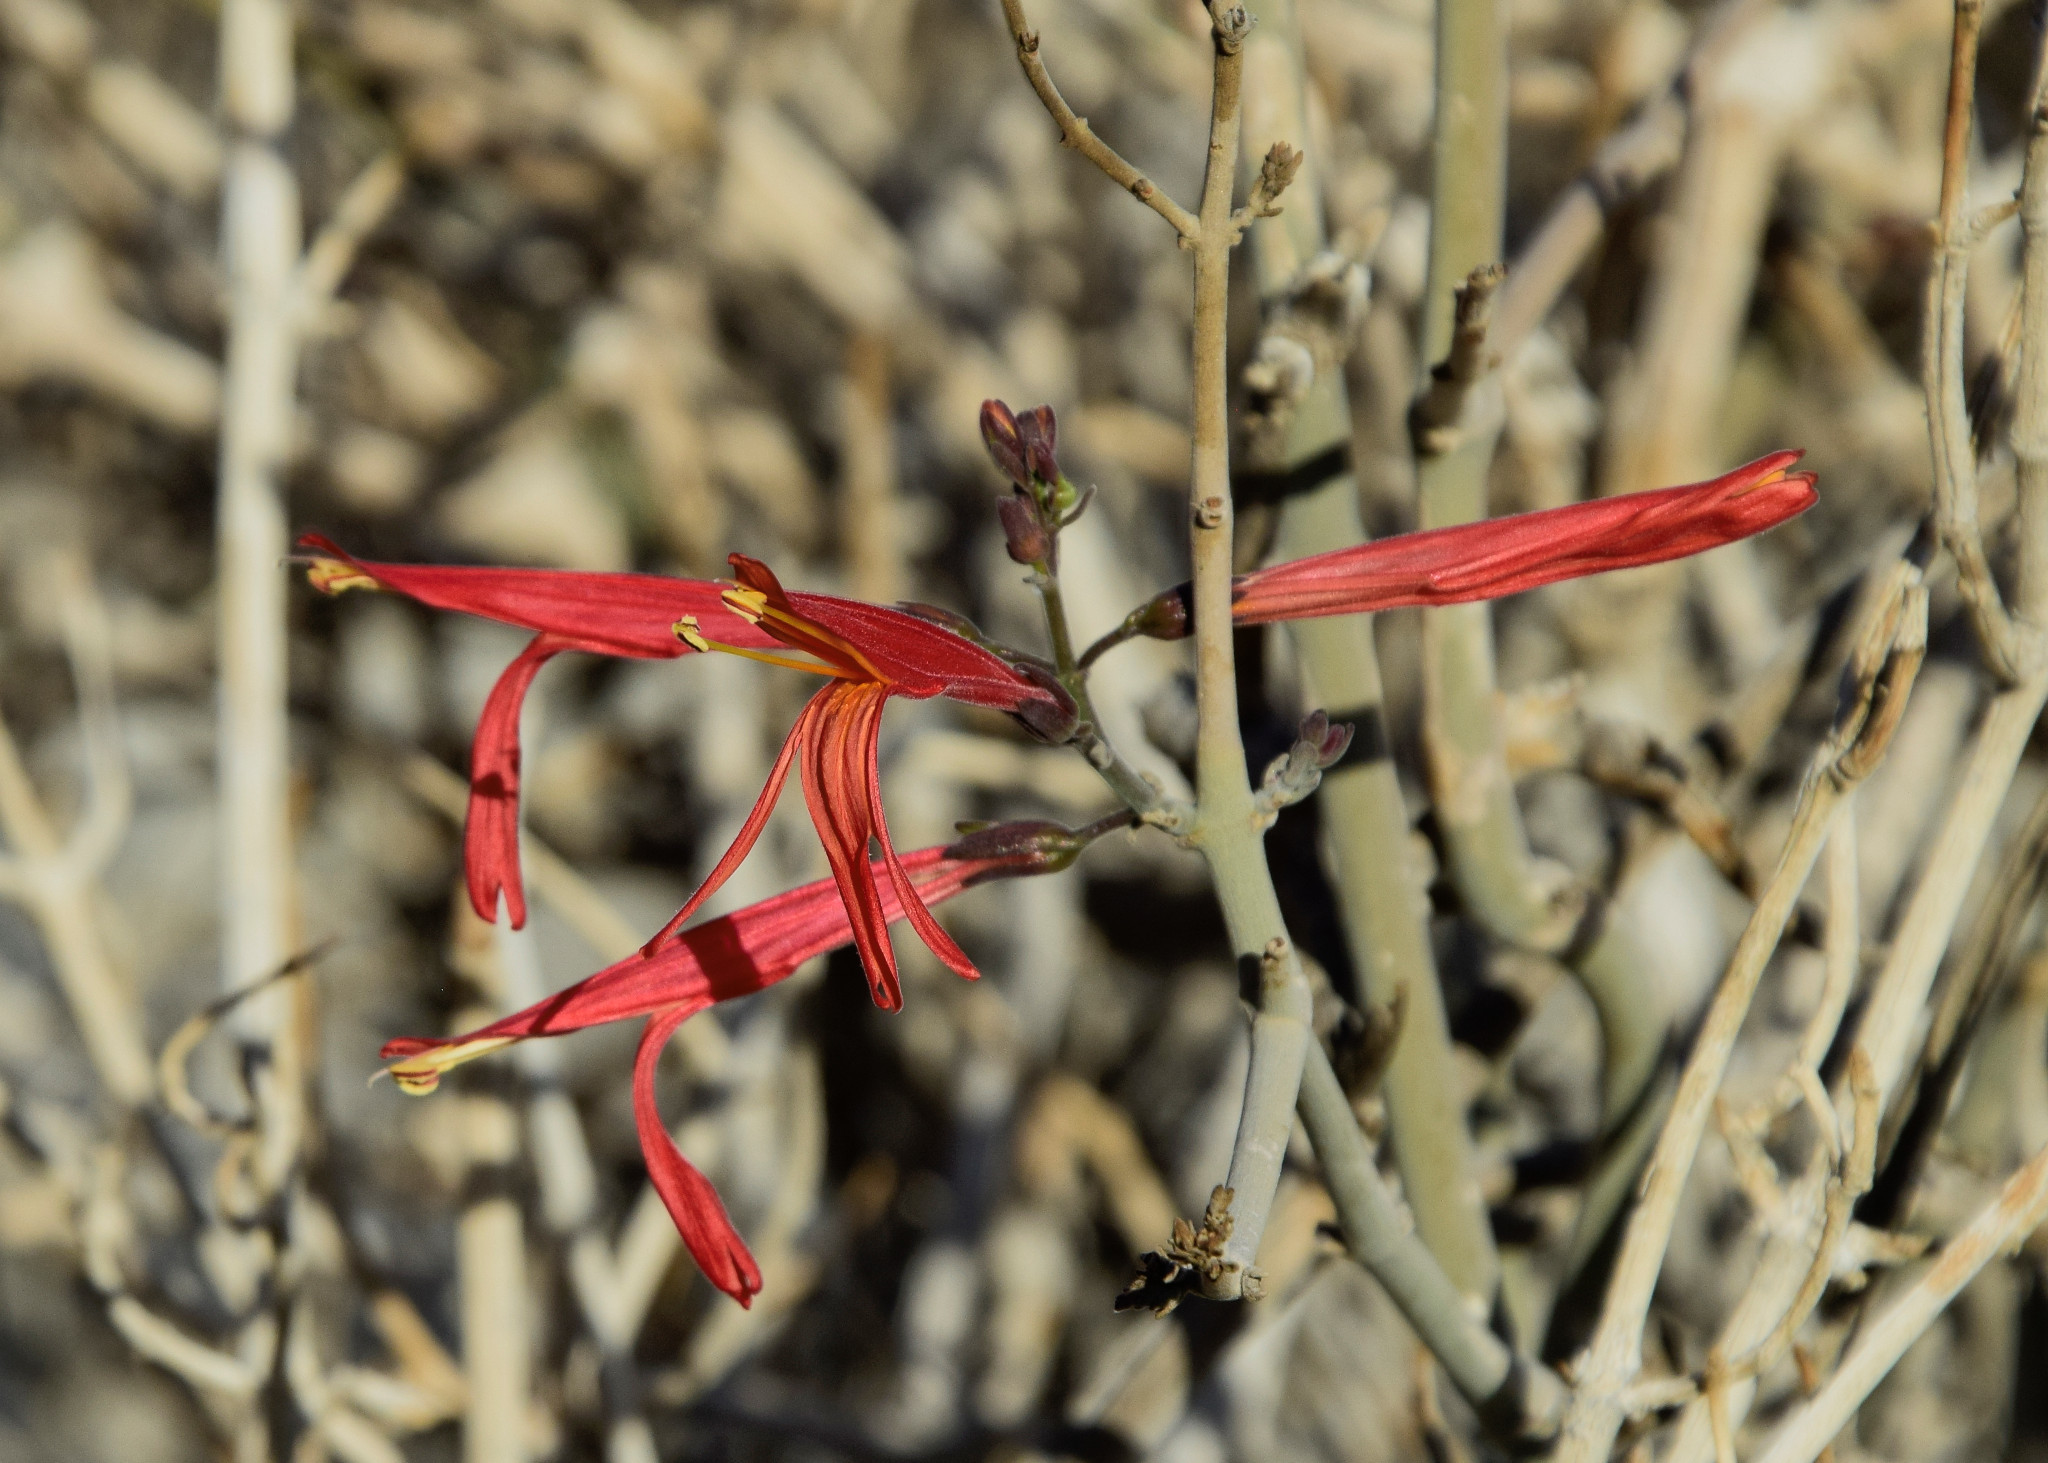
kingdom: Plantae
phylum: Tracheophyta
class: Magnoliopsida
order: Lamiales
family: Acanthaceae
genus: Justicia
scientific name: Justicia californica
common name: Chuparosa-honeysuckle
